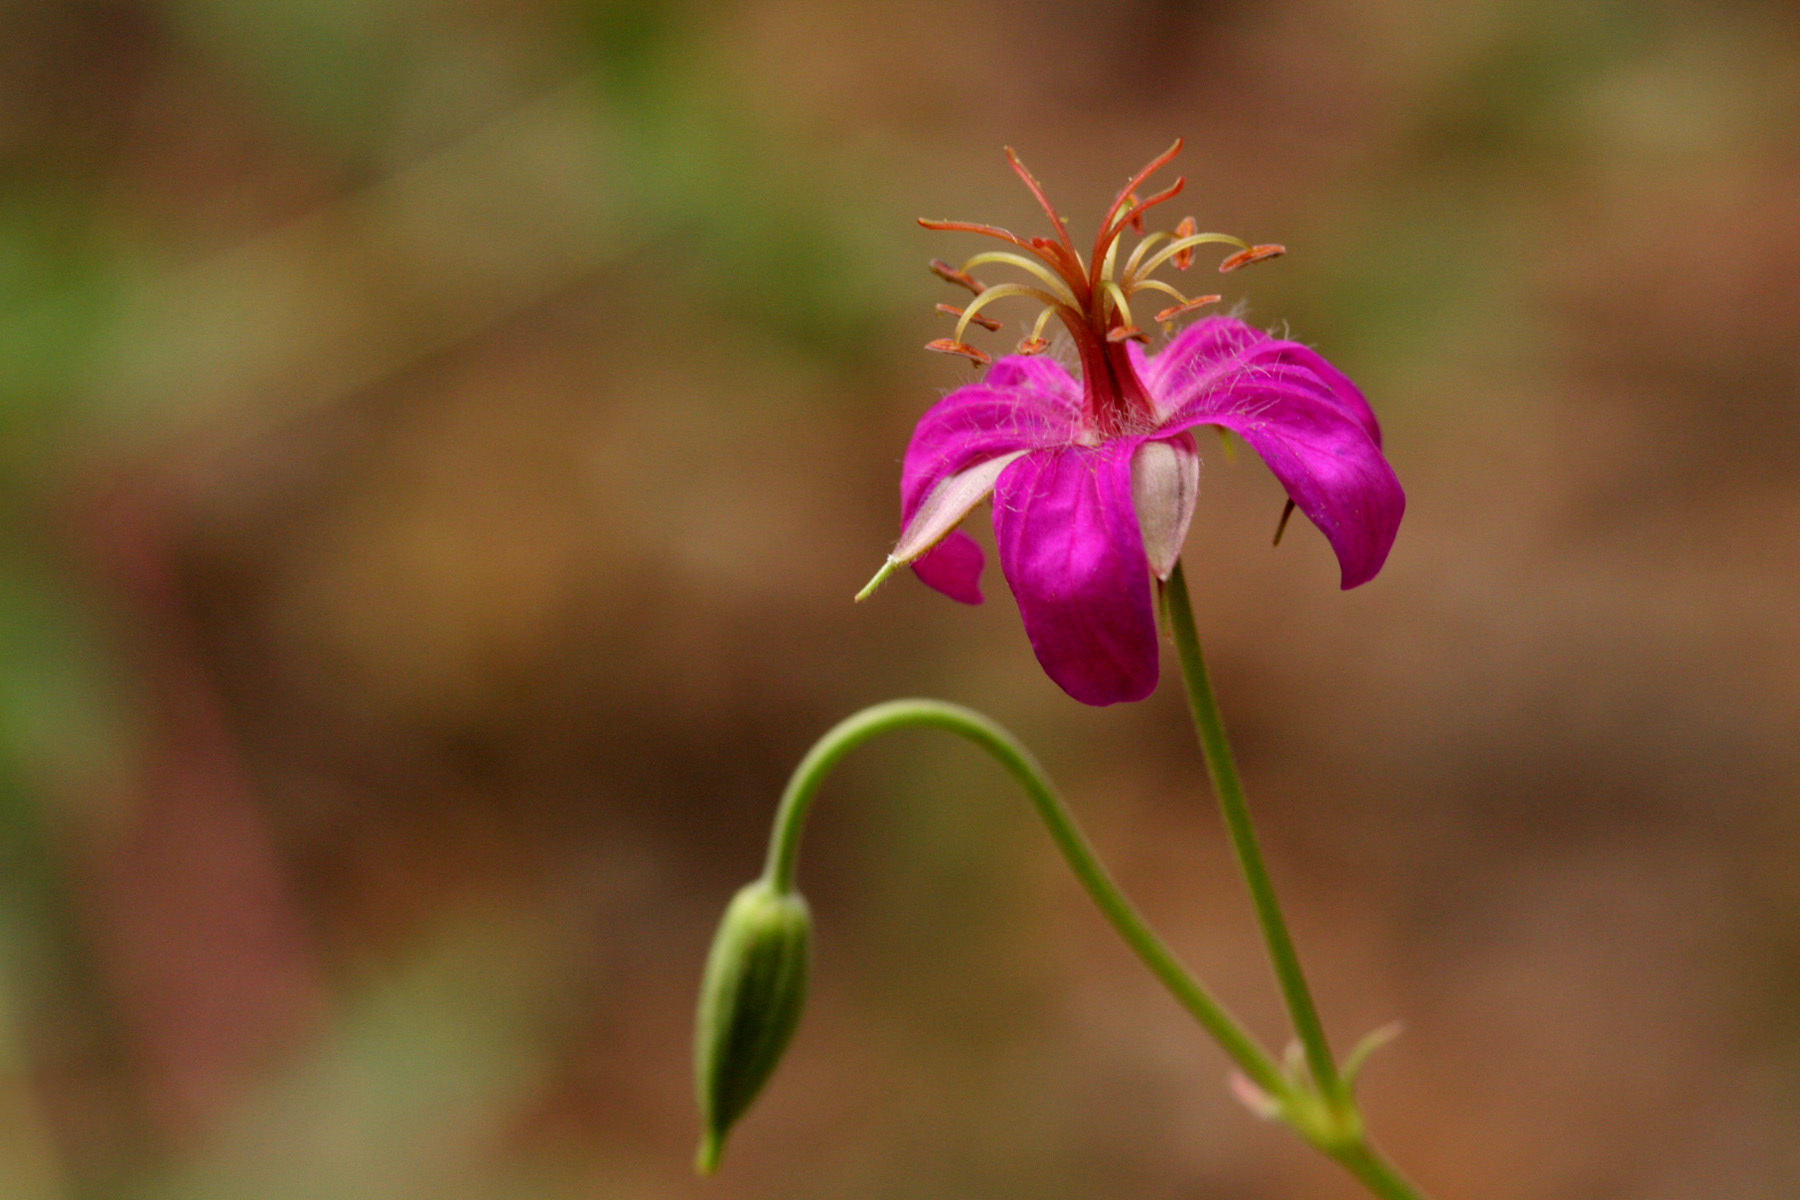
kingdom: Plantae
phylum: Tracheophyta
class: Magnoliopsida
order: Geraniales
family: Geraniaceae
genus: Geranium
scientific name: Geranium caespitosum
